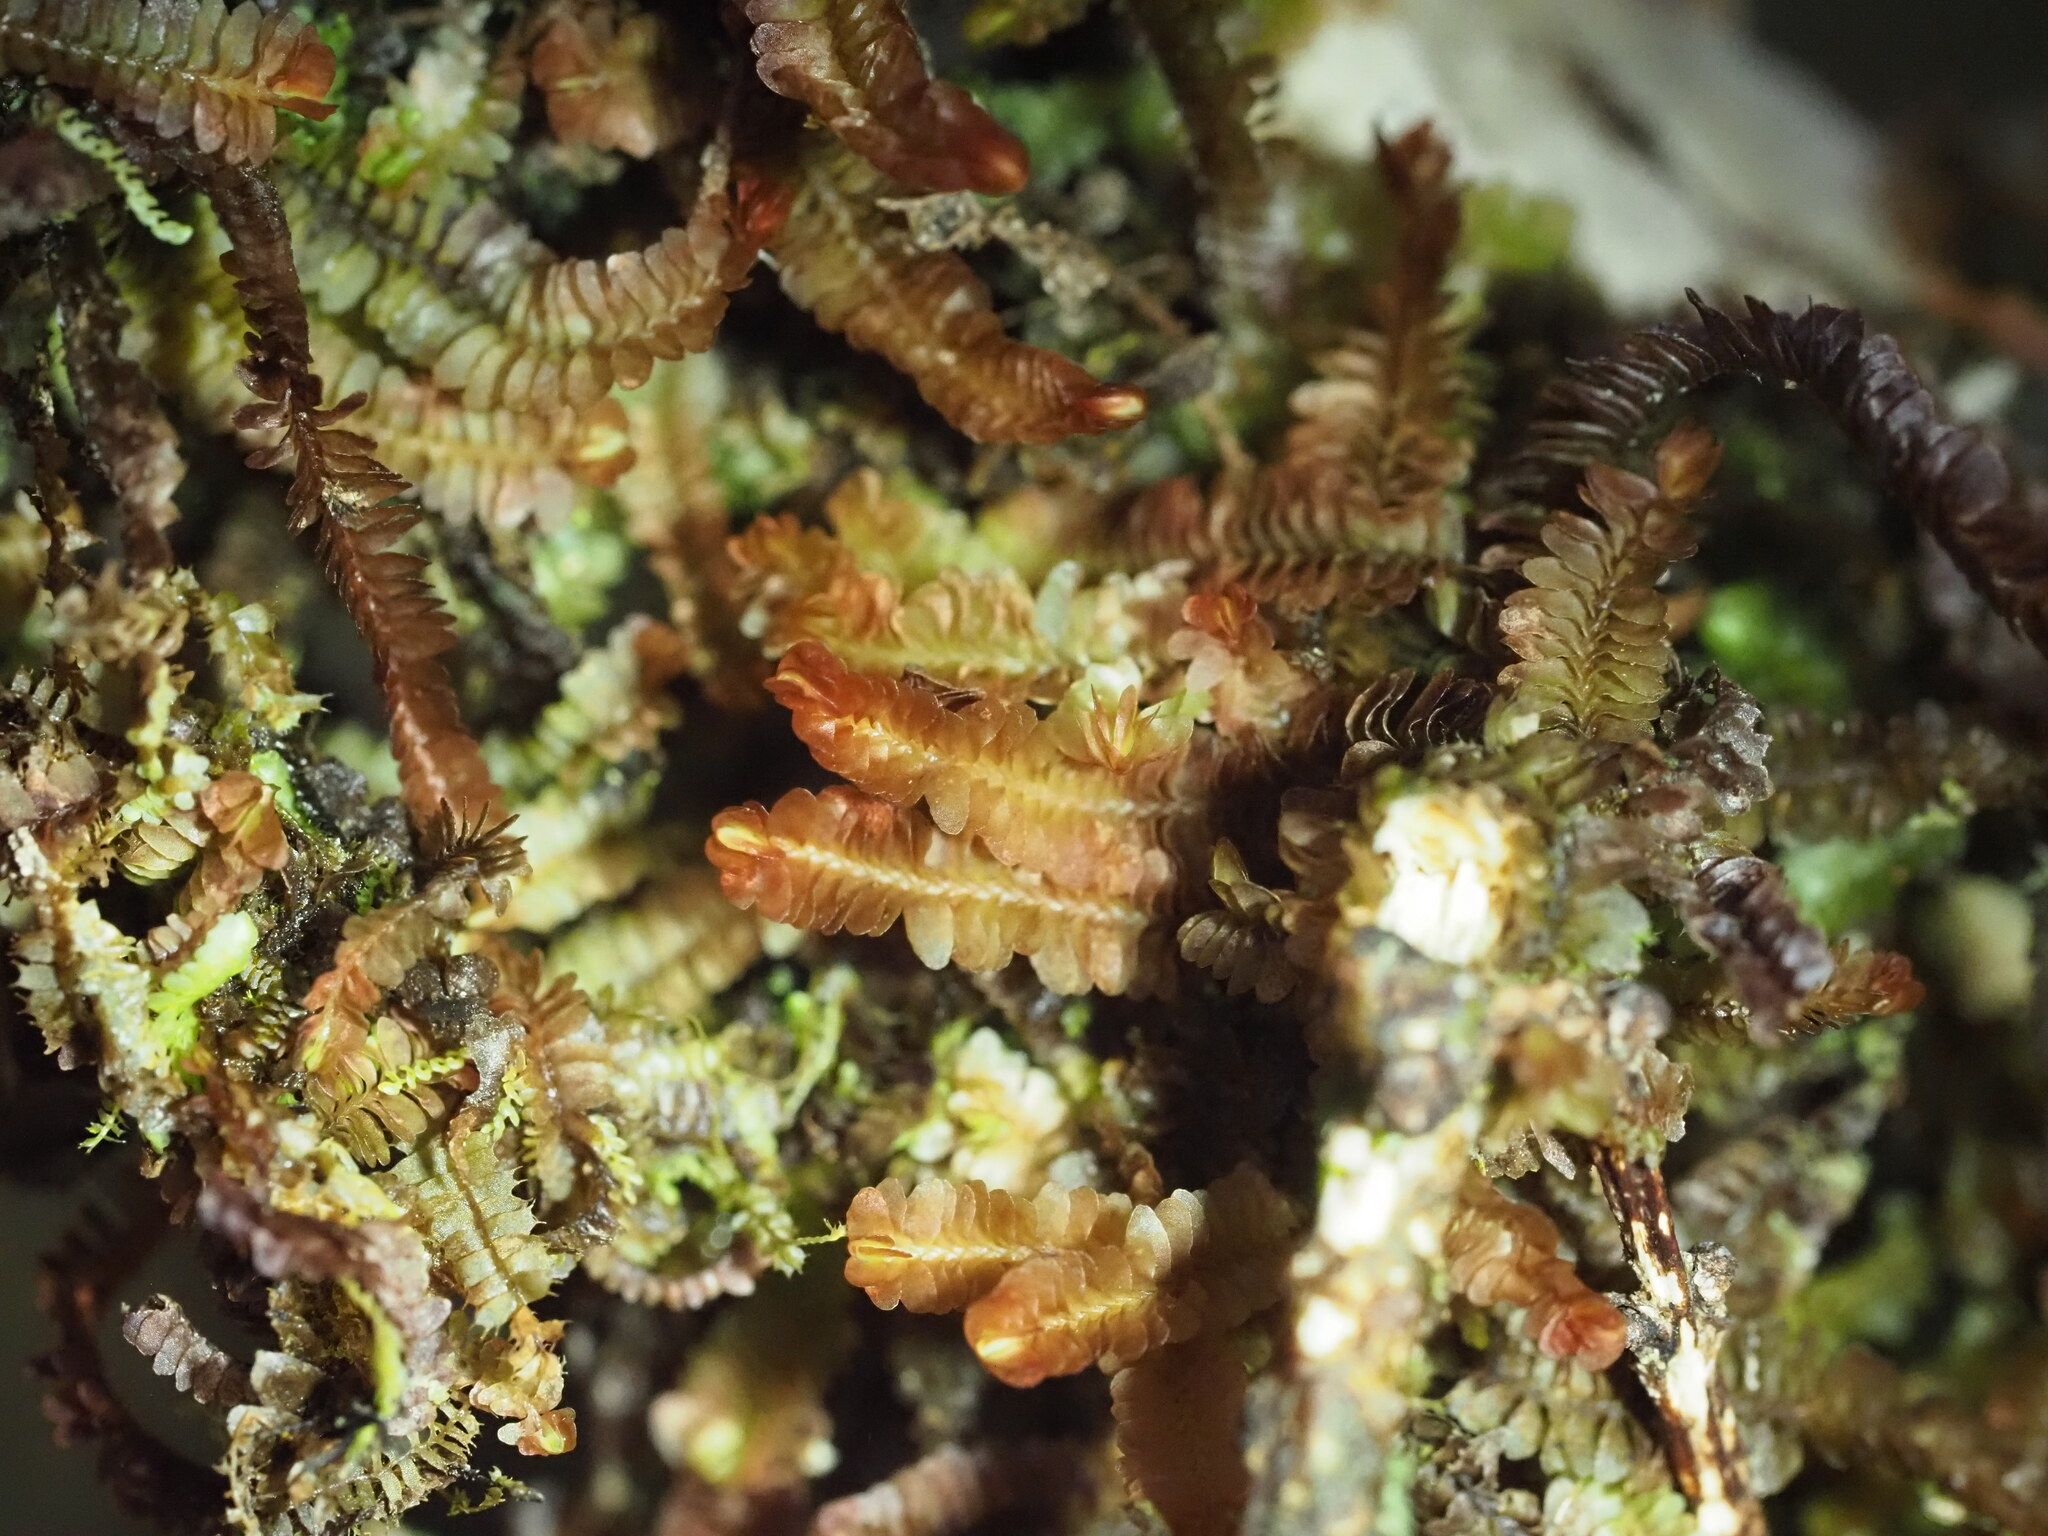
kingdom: Plantae
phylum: Marchantiophyta
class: Jungermanniopsida
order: Jungermanniales
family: Adelanthaceae
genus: Cuspidatula
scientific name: Cuspidatula robusta
